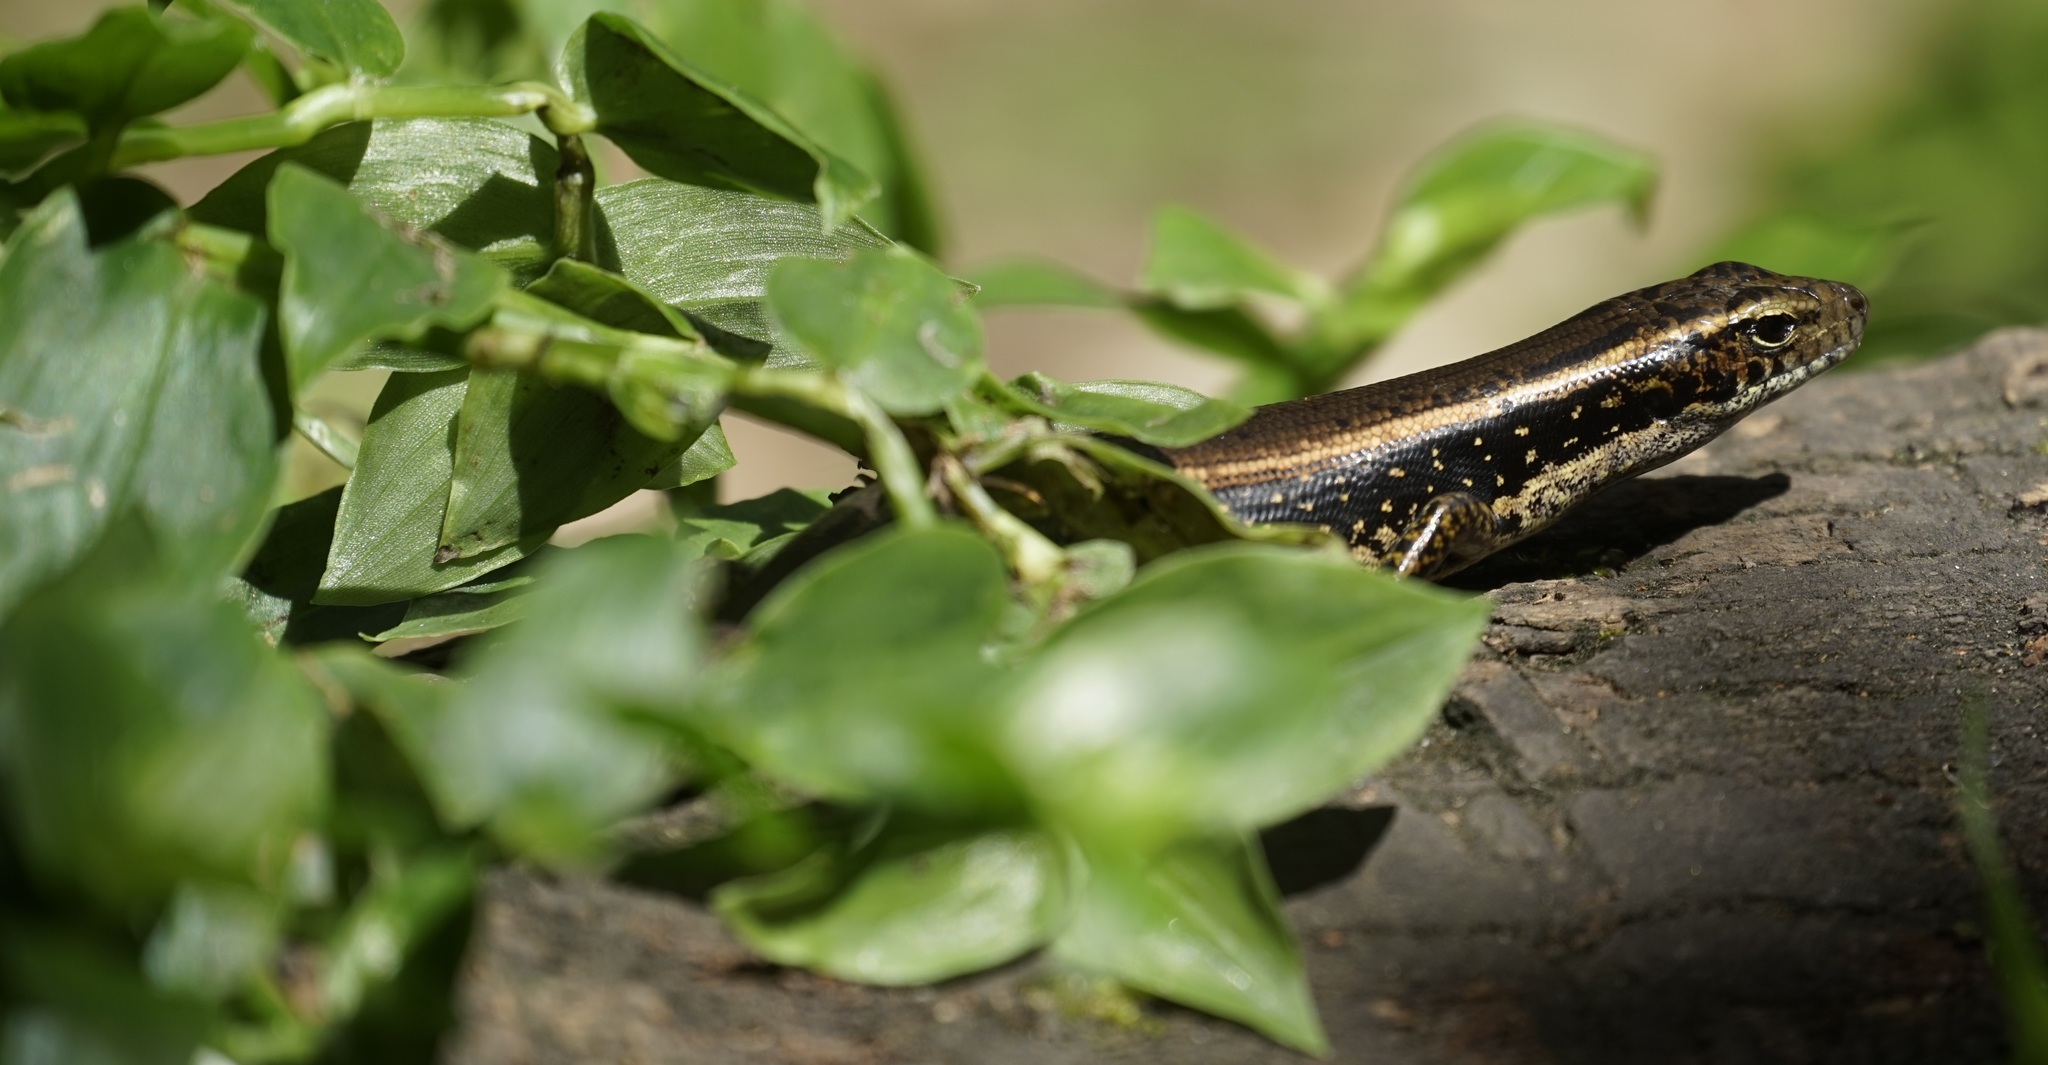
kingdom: Animalia
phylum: Chordata
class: Squamata
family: Scincidae
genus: Eulamprus
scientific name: Eulamprus quoyii
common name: Eastern water skink
